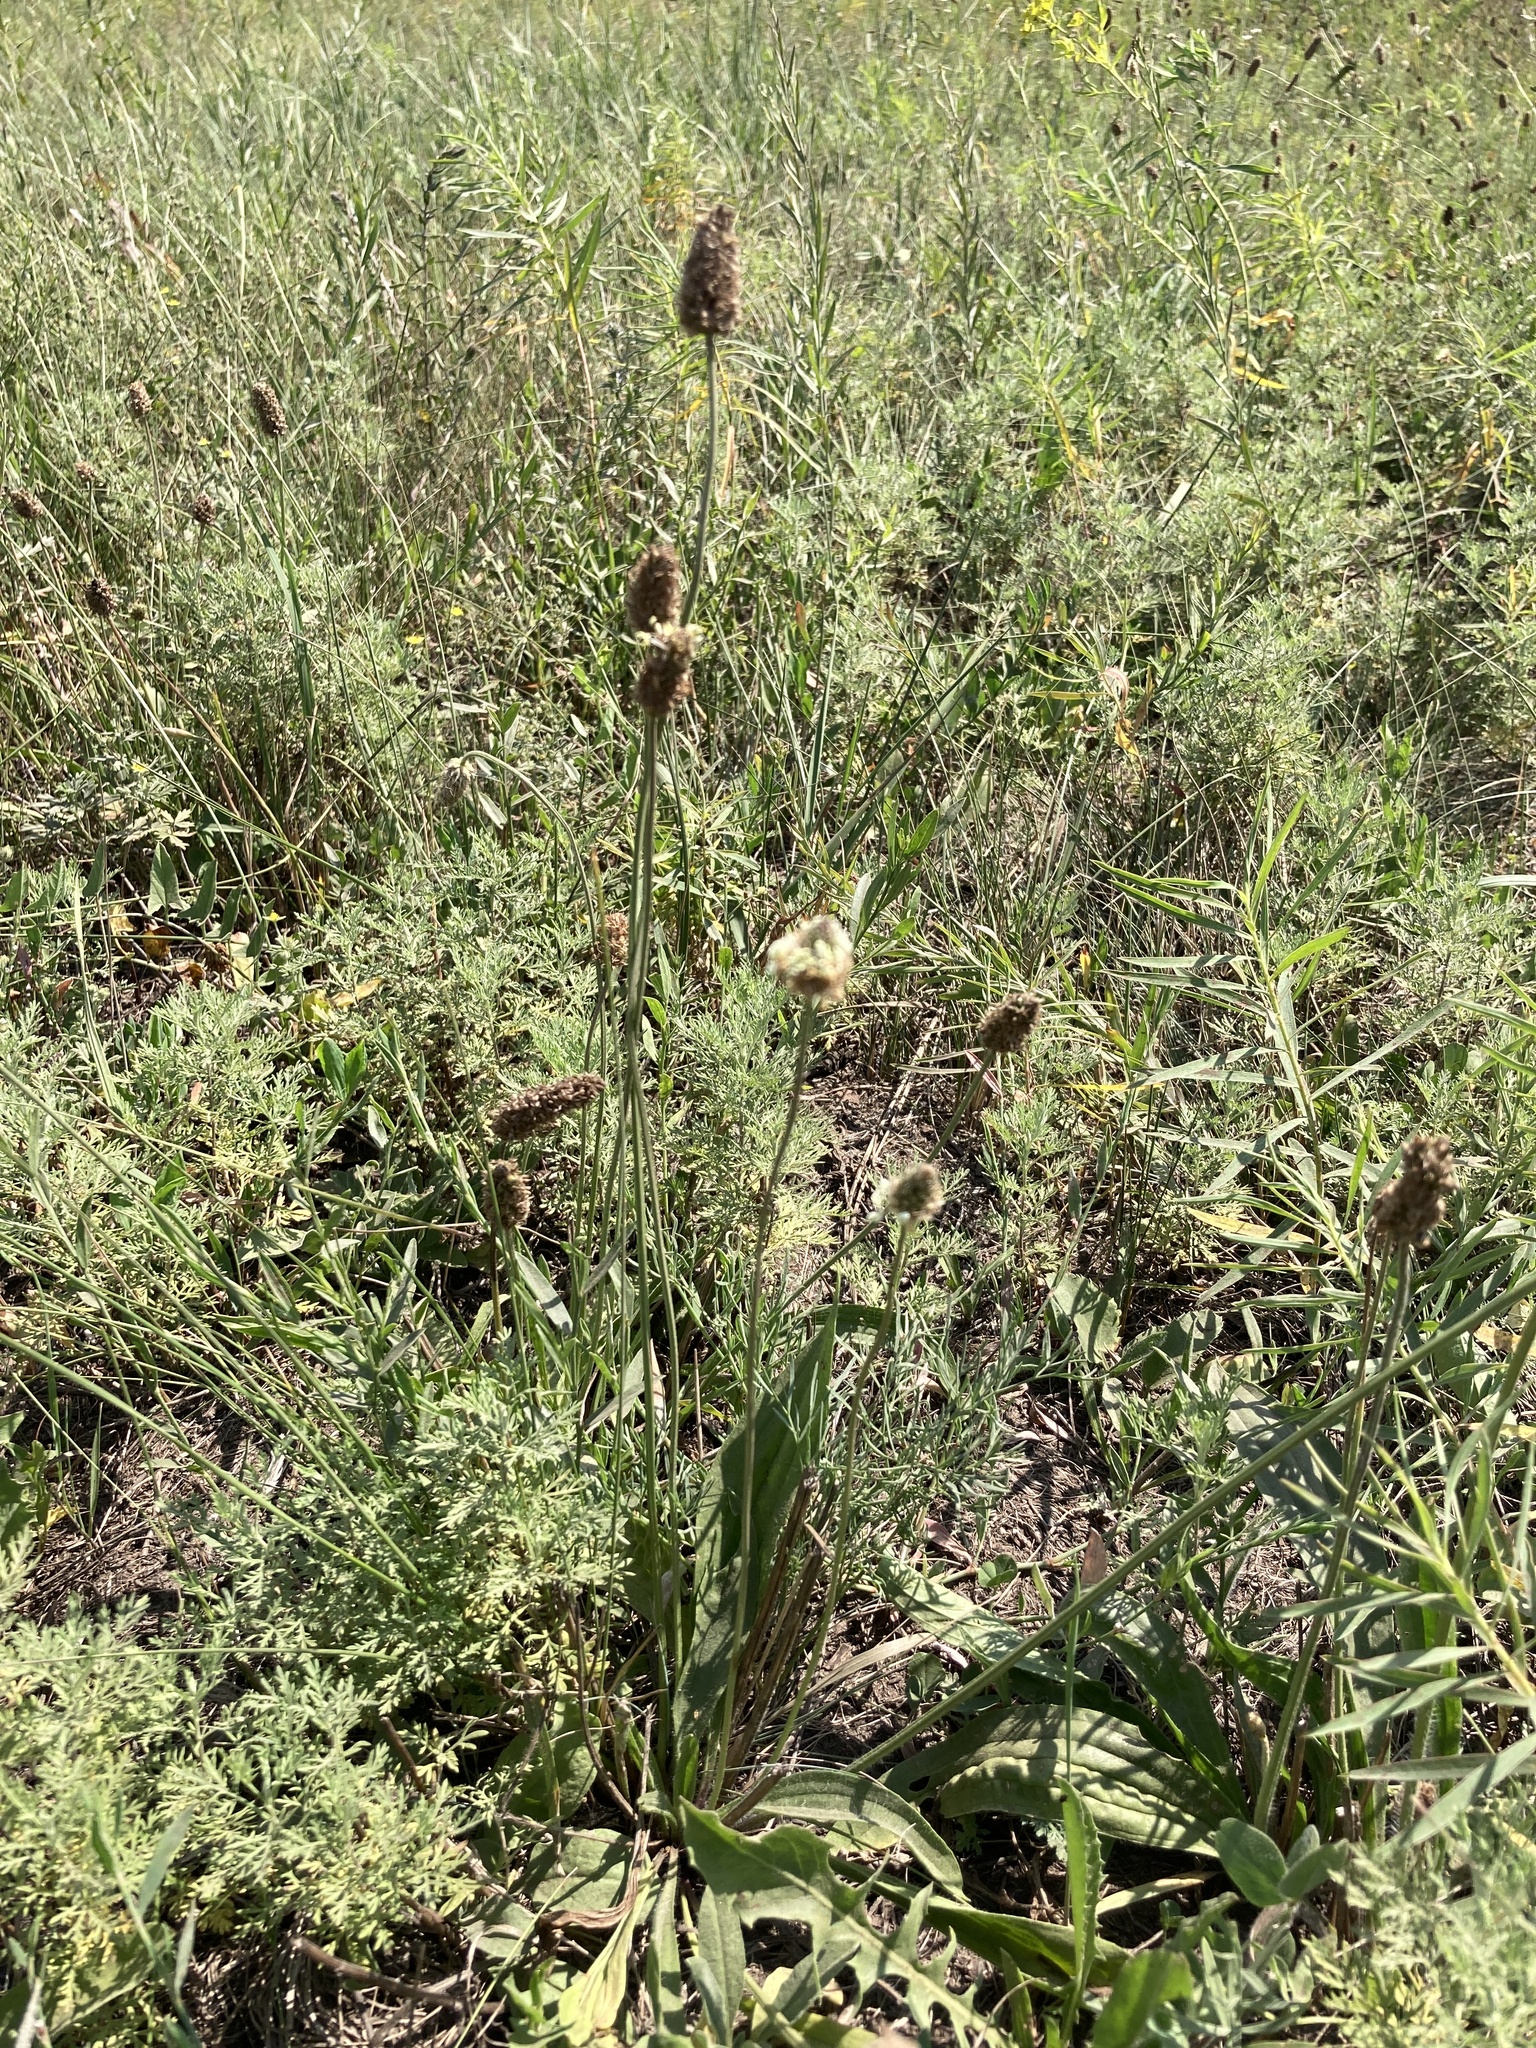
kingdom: Plantae
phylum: Tracheophyta
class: Magnoliopsida
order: Lamiales
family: Plantaginaceae
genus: Plantago
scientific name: Plantago lanceolata
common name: Ribwort plantain
